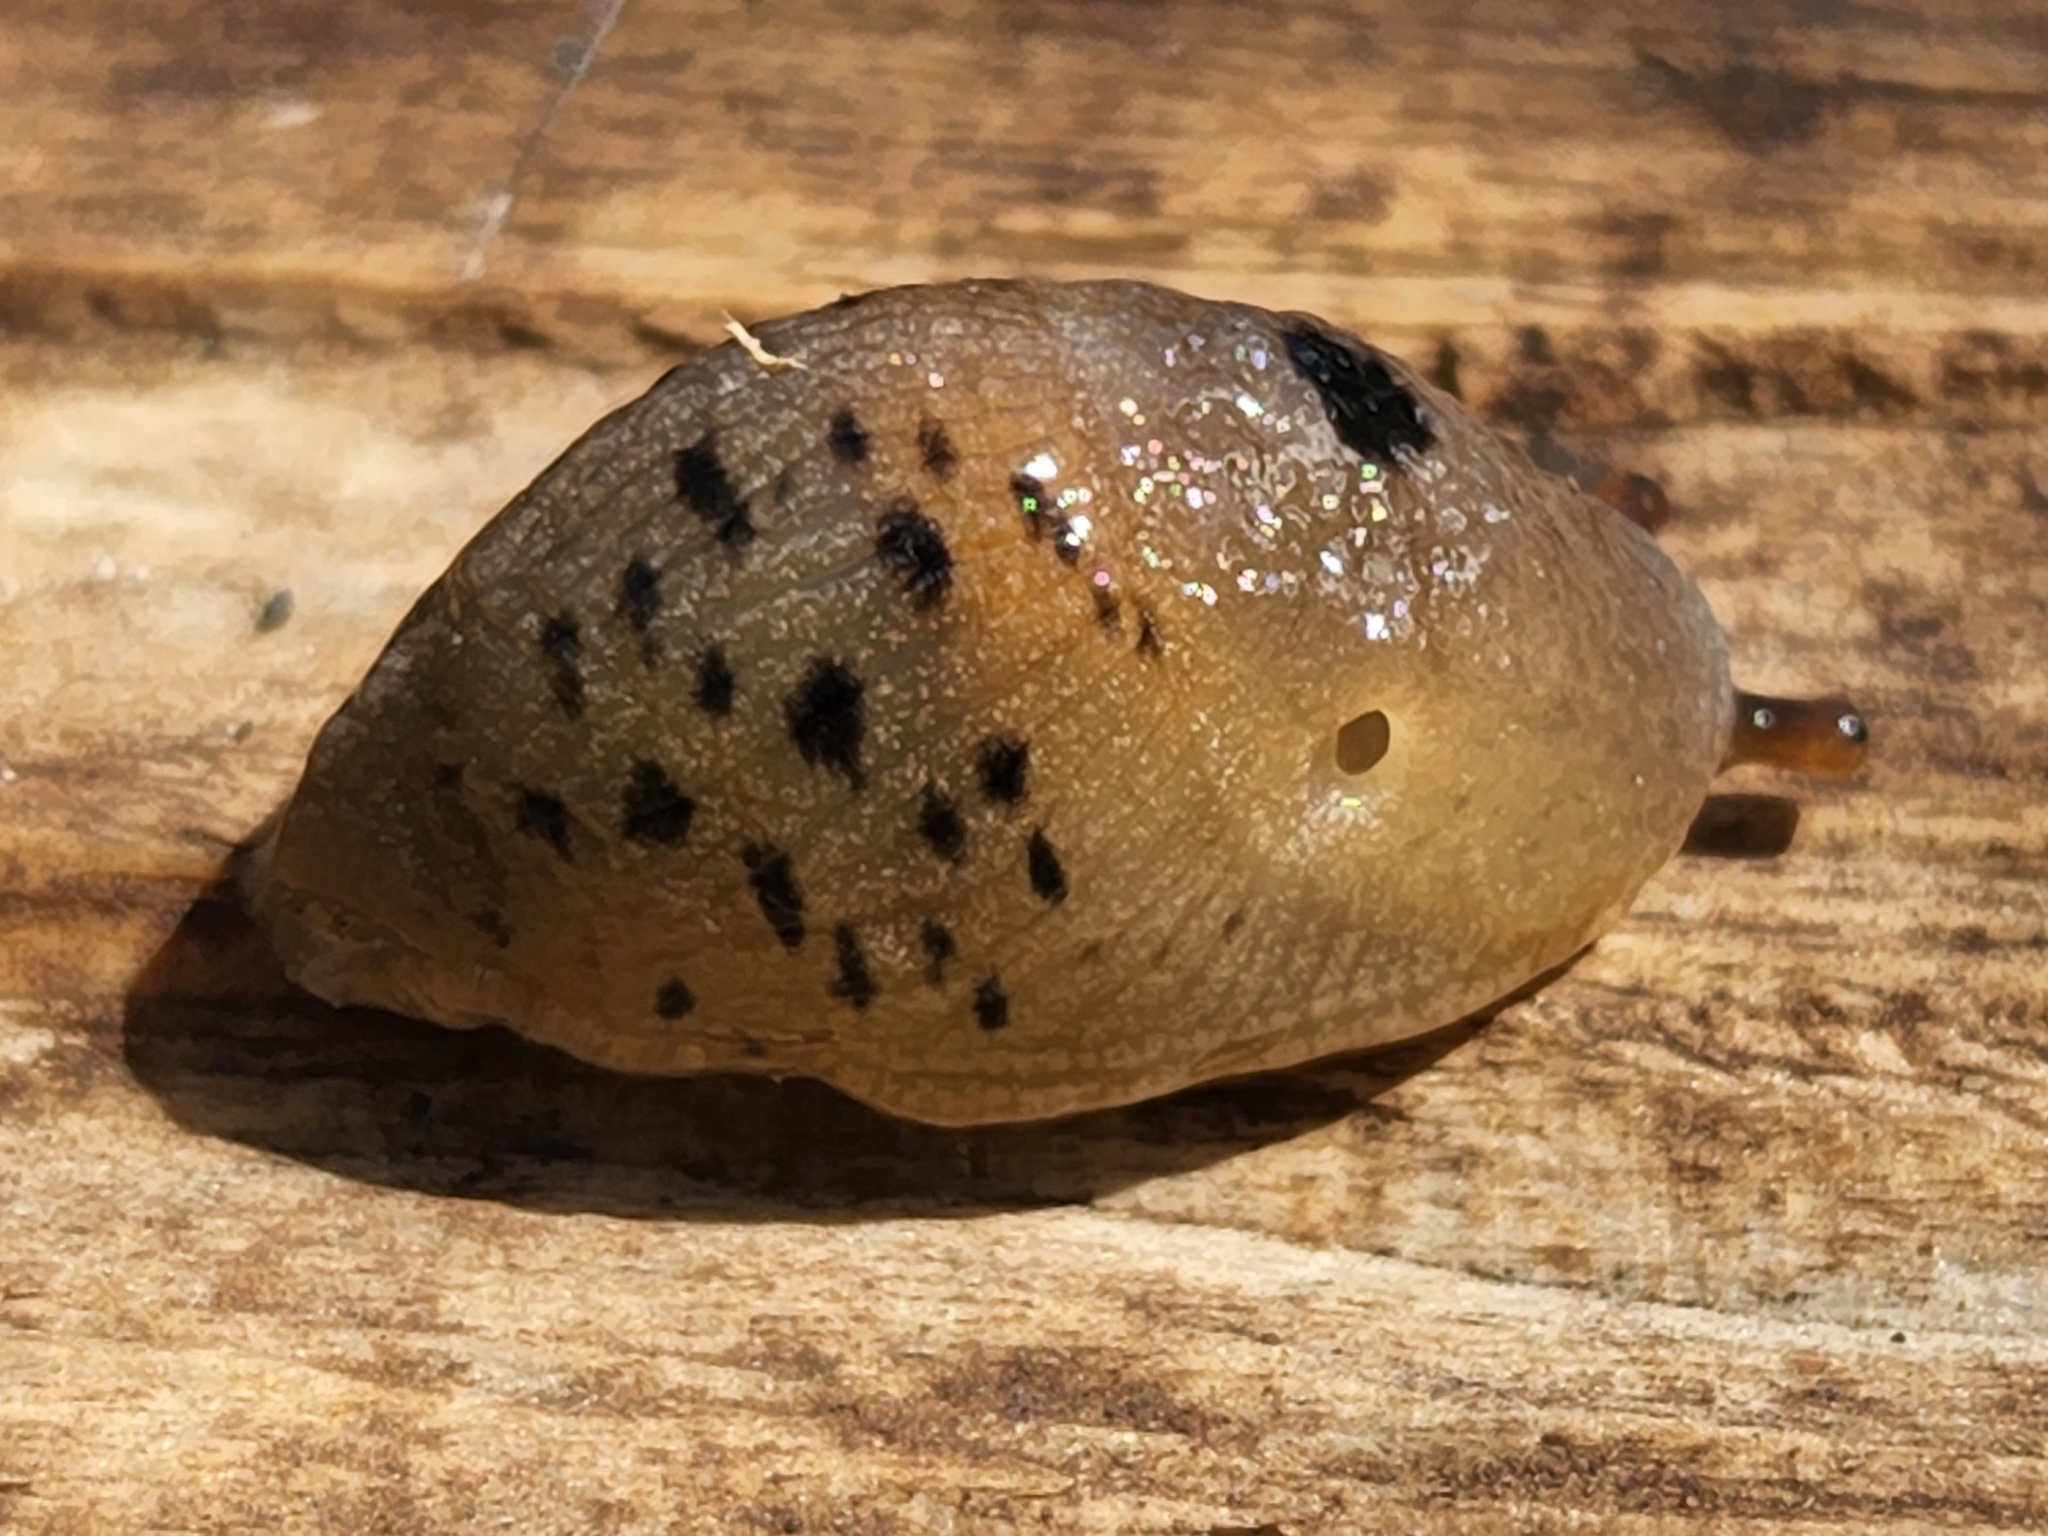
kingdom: Animalia
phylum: Mollusca
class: Gastropoda
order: Stylommatophora
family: Ariolimacidae
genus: Ariolimax
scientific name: Ariolimax columbianus
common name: Pacific banana slug
